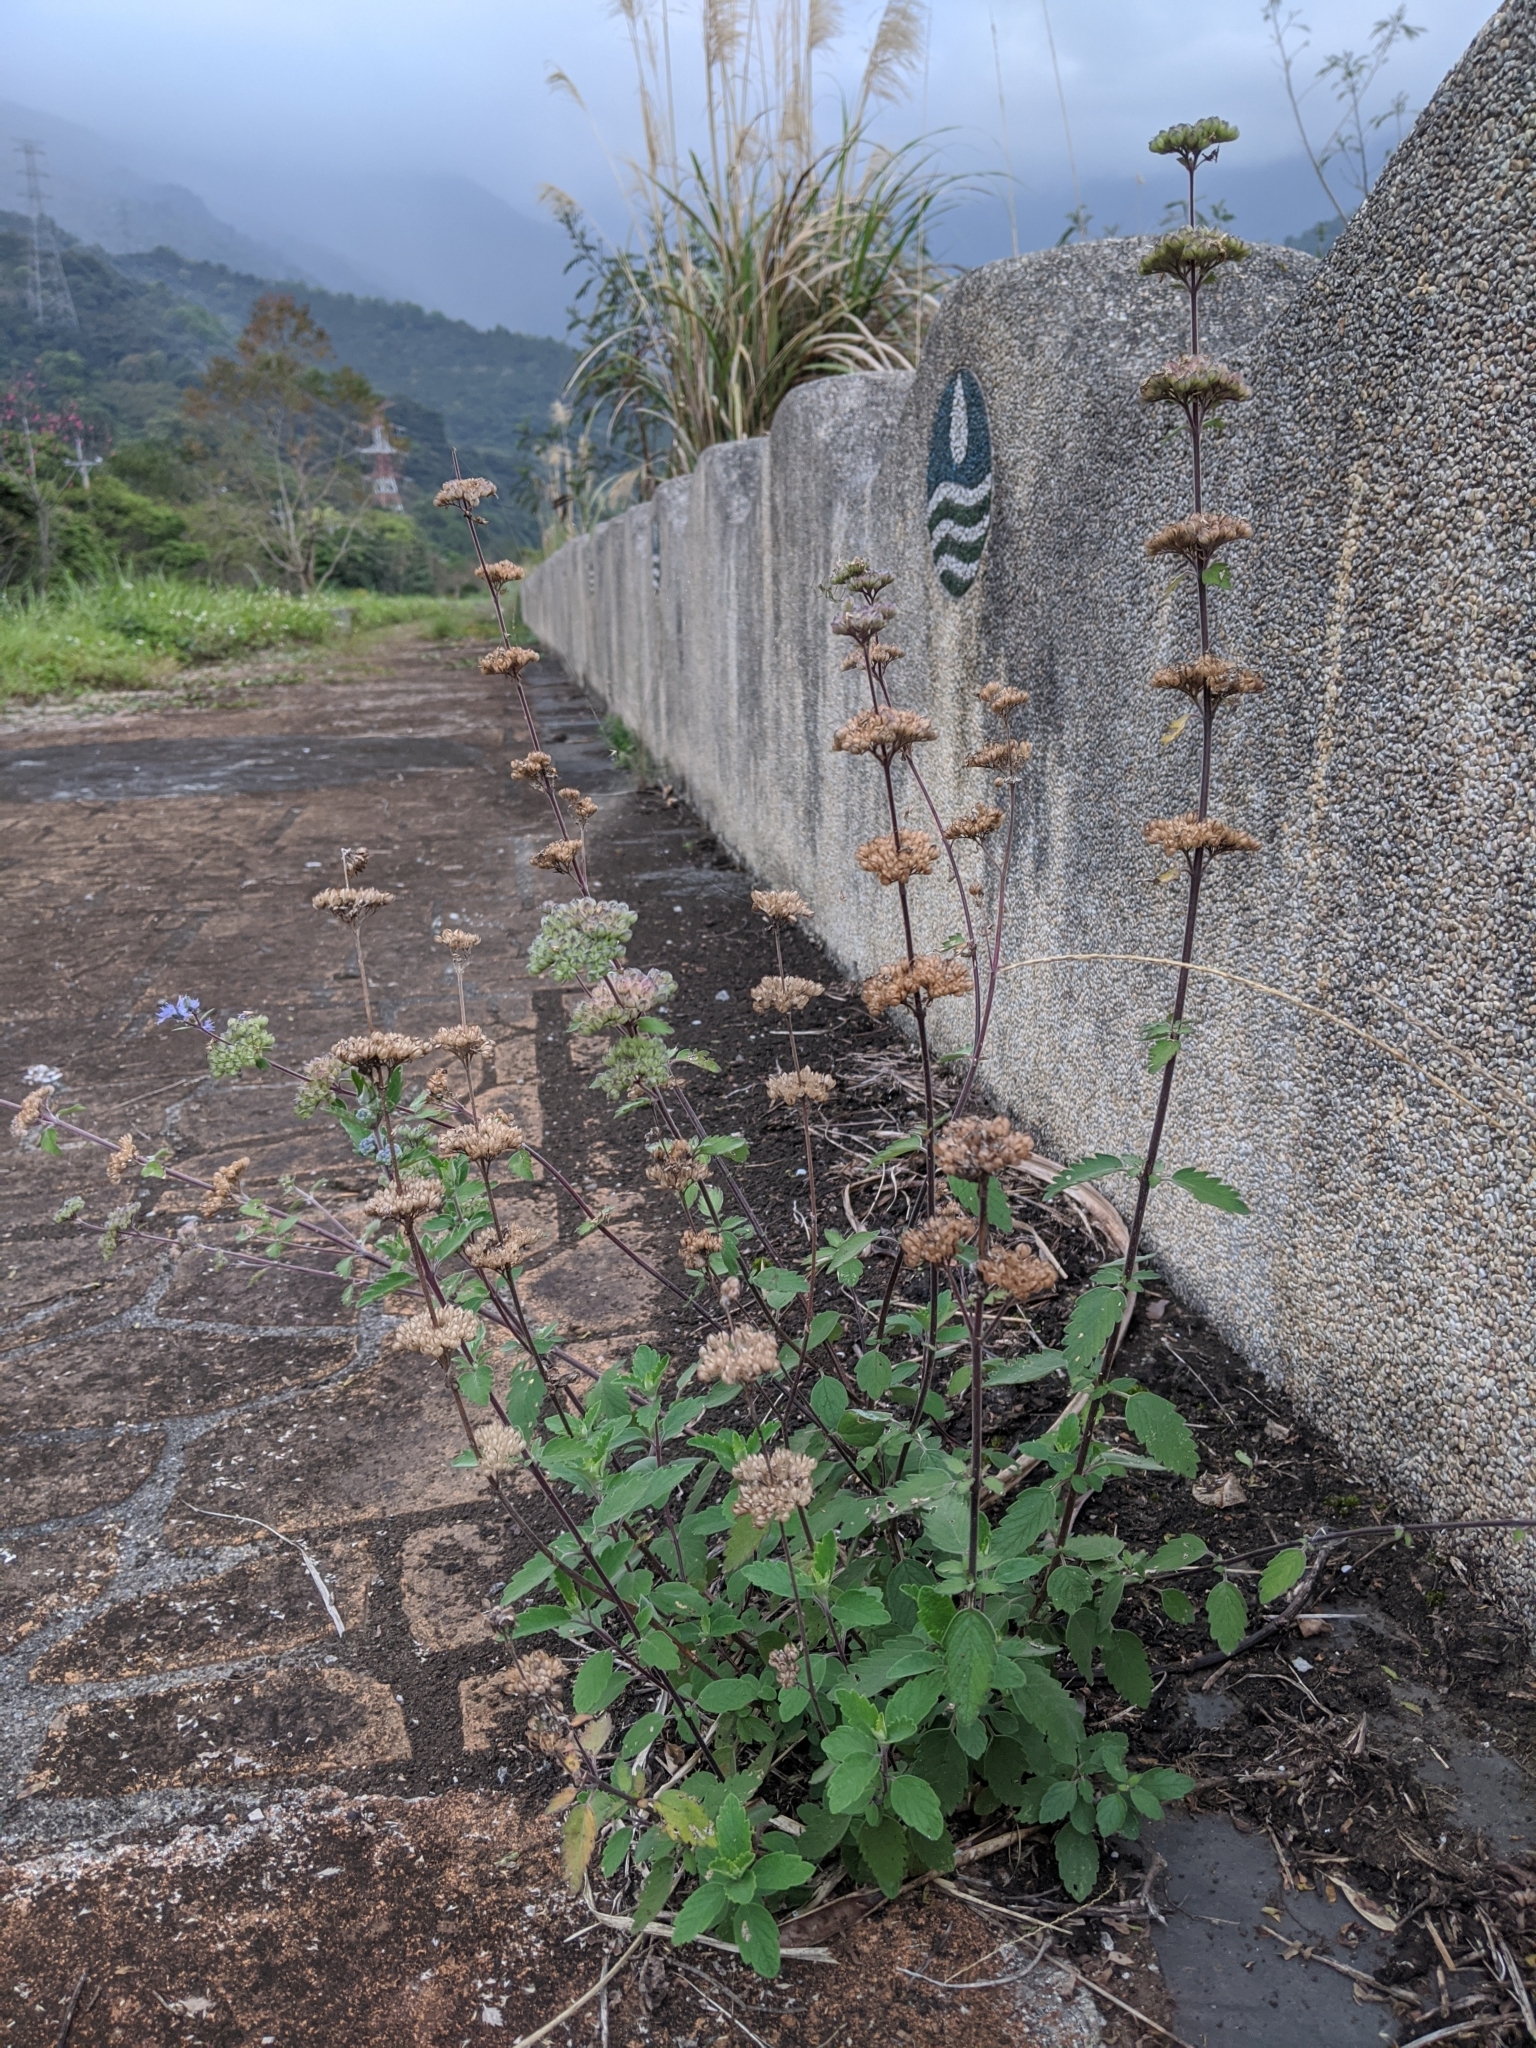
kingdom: Plantae
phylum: Tracheophyta
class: Magnoliopsida
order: Lamiales
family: Lamiaceae
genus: Caryopteris
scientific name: Caryopteris incana
